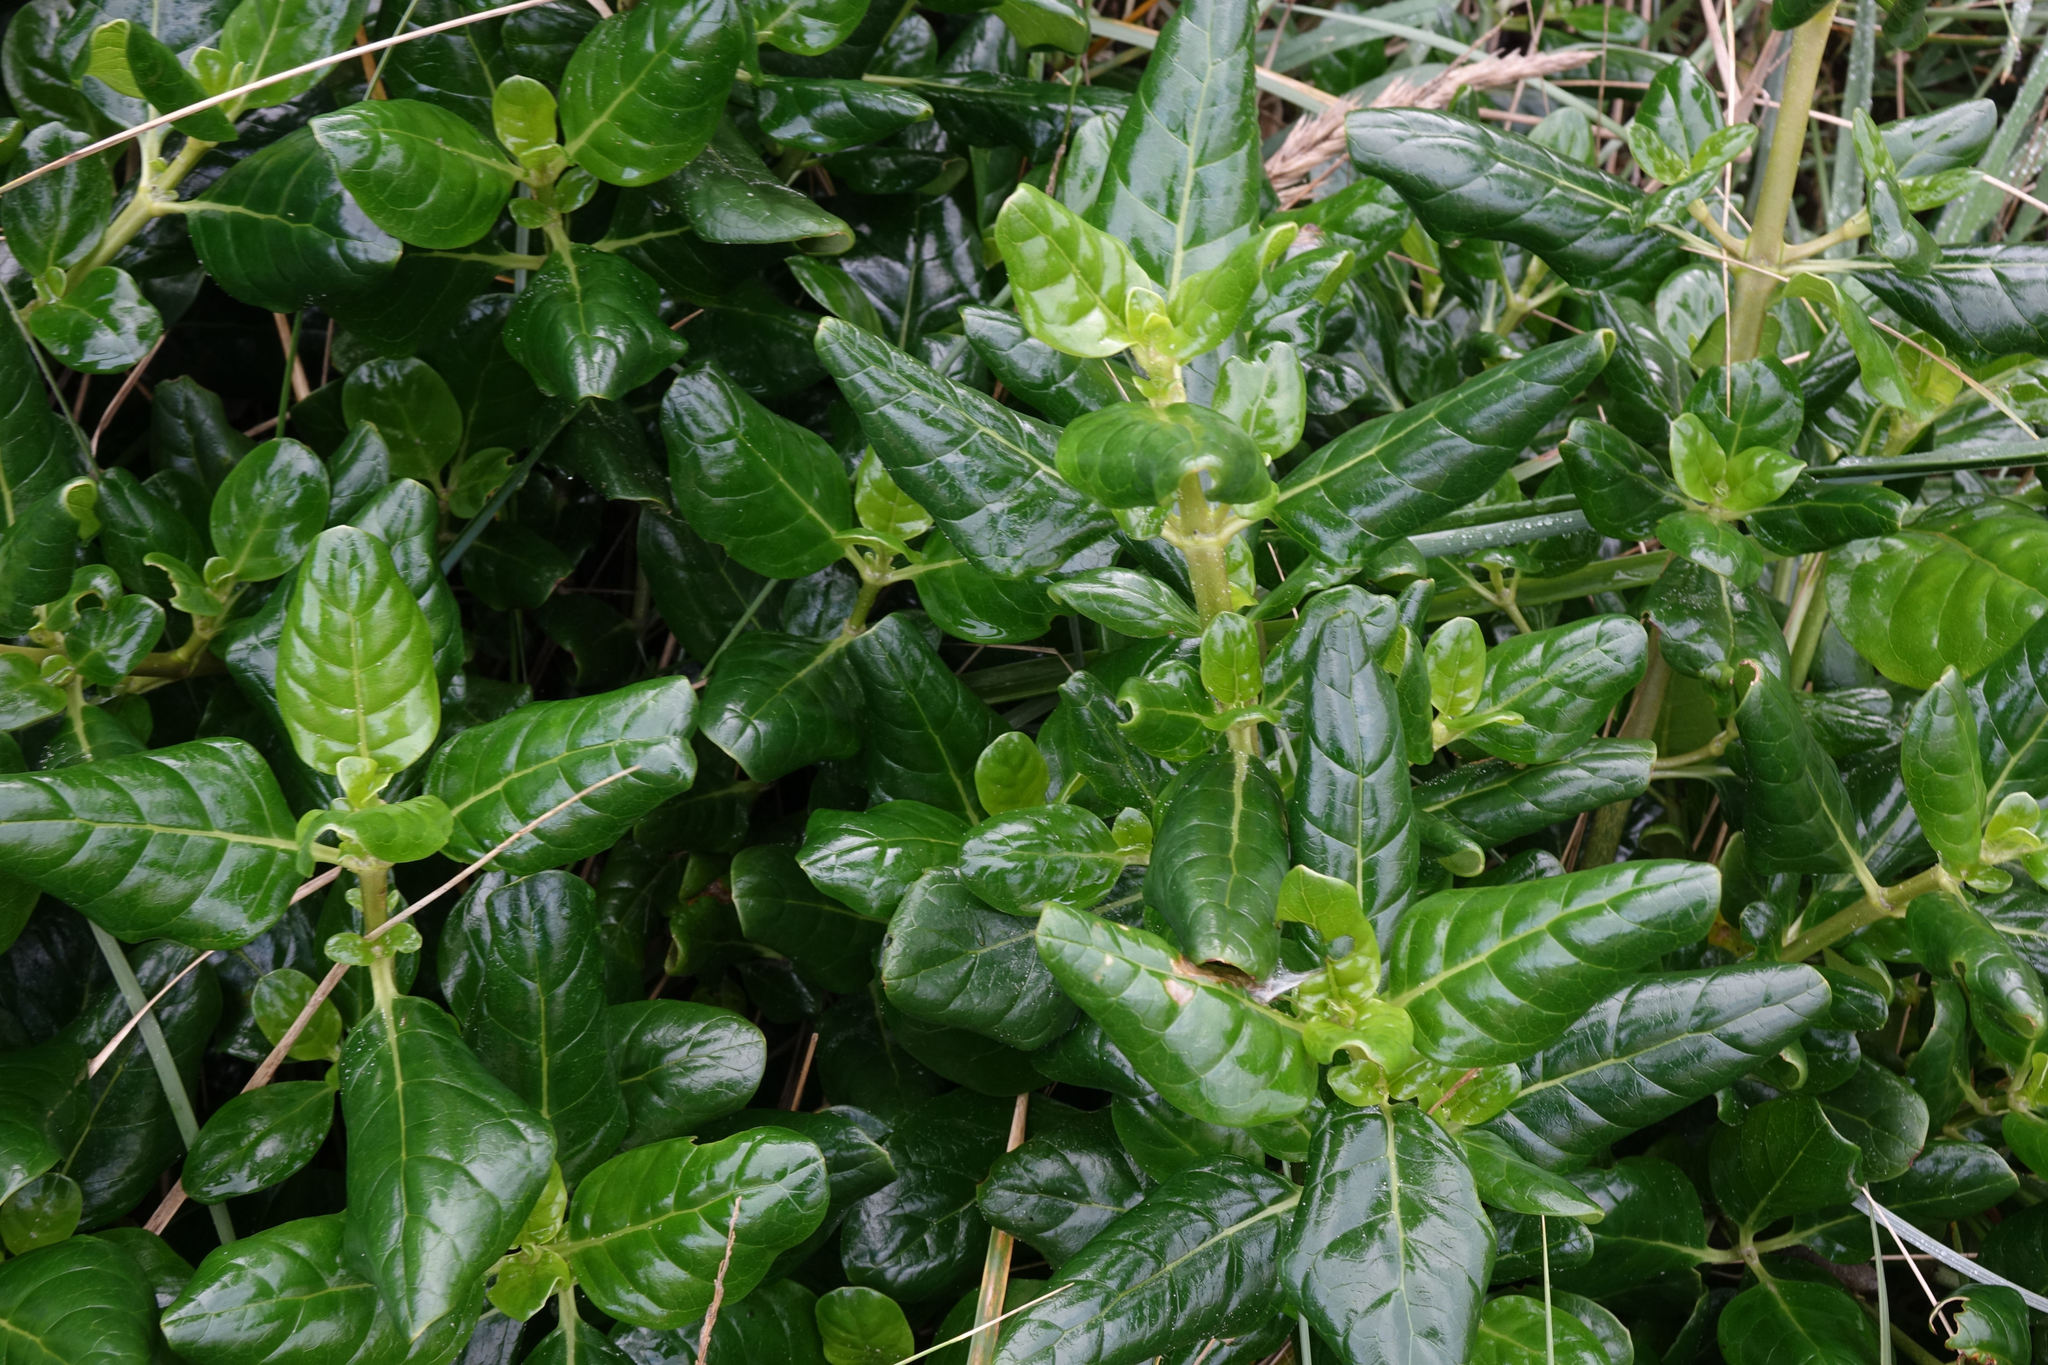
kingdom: Plantae
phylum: Tracheophyta
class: Magnoliopsida
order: Gentianales
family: Rubiaceae
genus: Coprosma
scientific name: Coprosma repens
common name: Tree bedstraw
